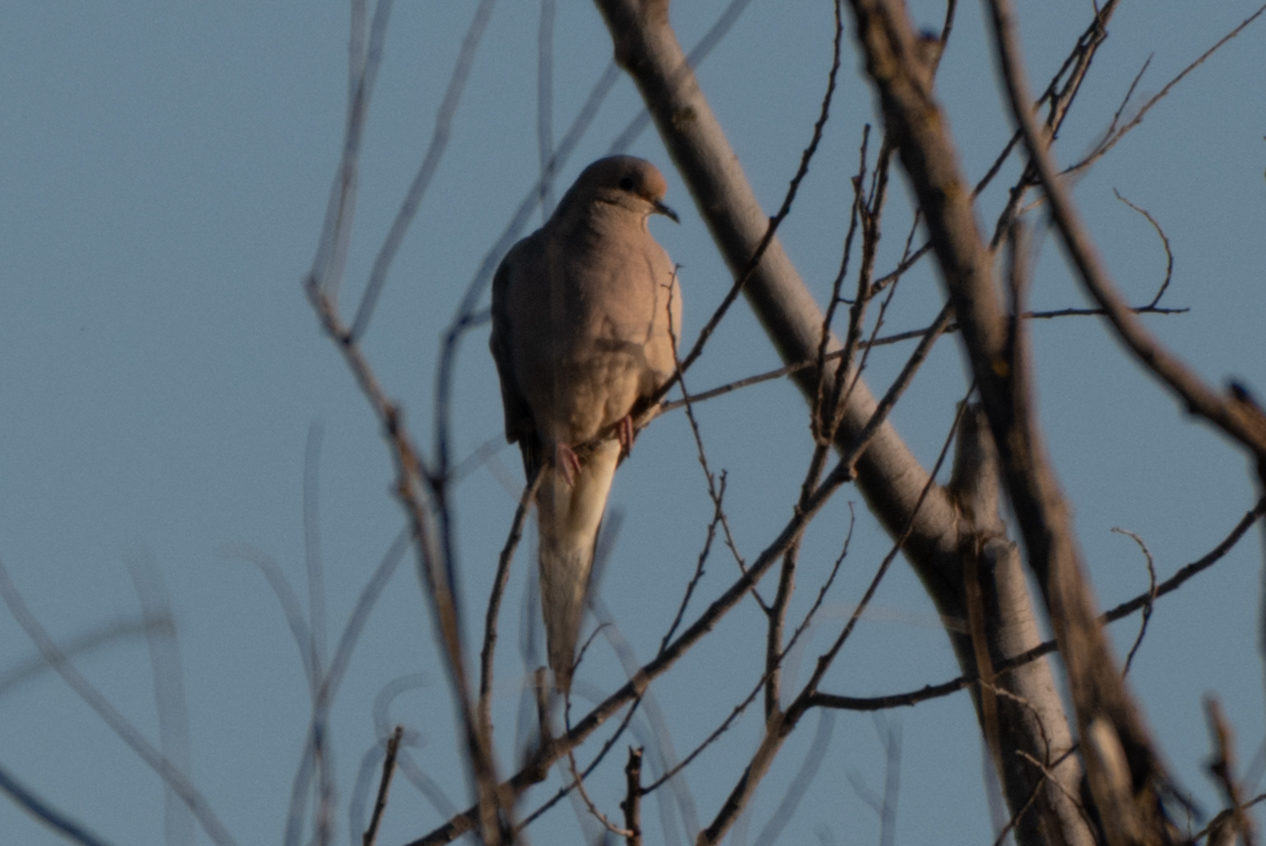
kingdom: Animalia
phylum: Chordata
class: Aves
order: Columbiformes
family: Columbidae
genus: Zenaida
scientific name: Zenaida macroura
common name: Mourning dove
